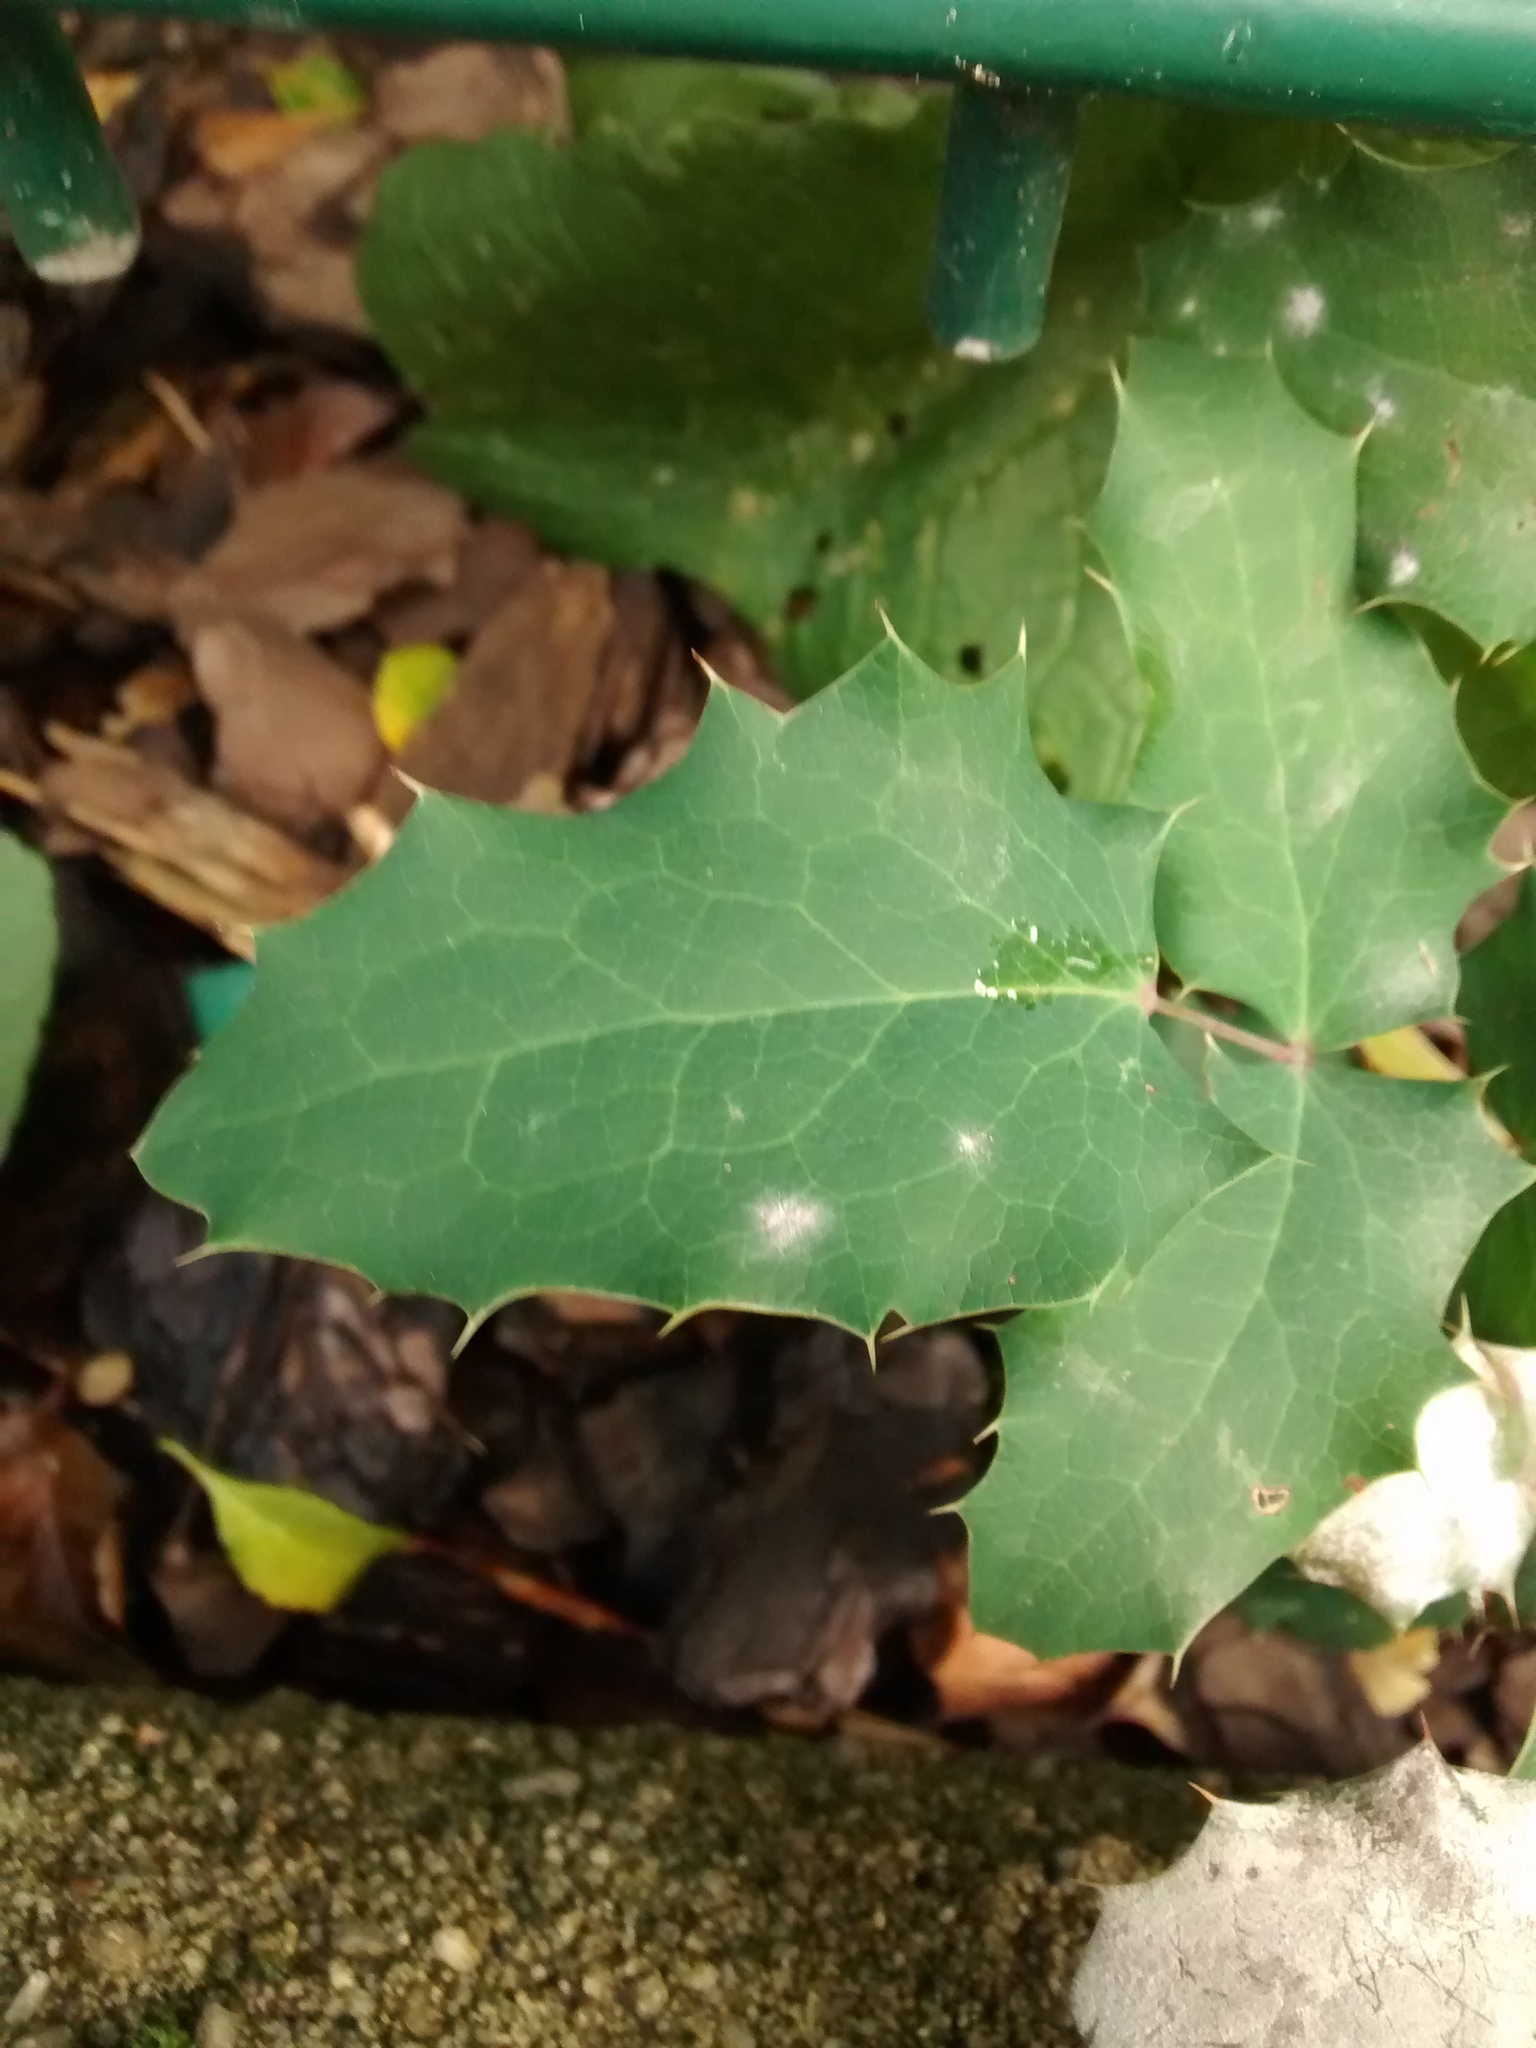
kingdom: Plantae
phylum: Tracheophyta
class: Magnoliopsida
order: Ranunculales
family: Berberidaceae
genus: Mahonia
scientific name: Mahonia aquifolium
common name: Oregon-grape
